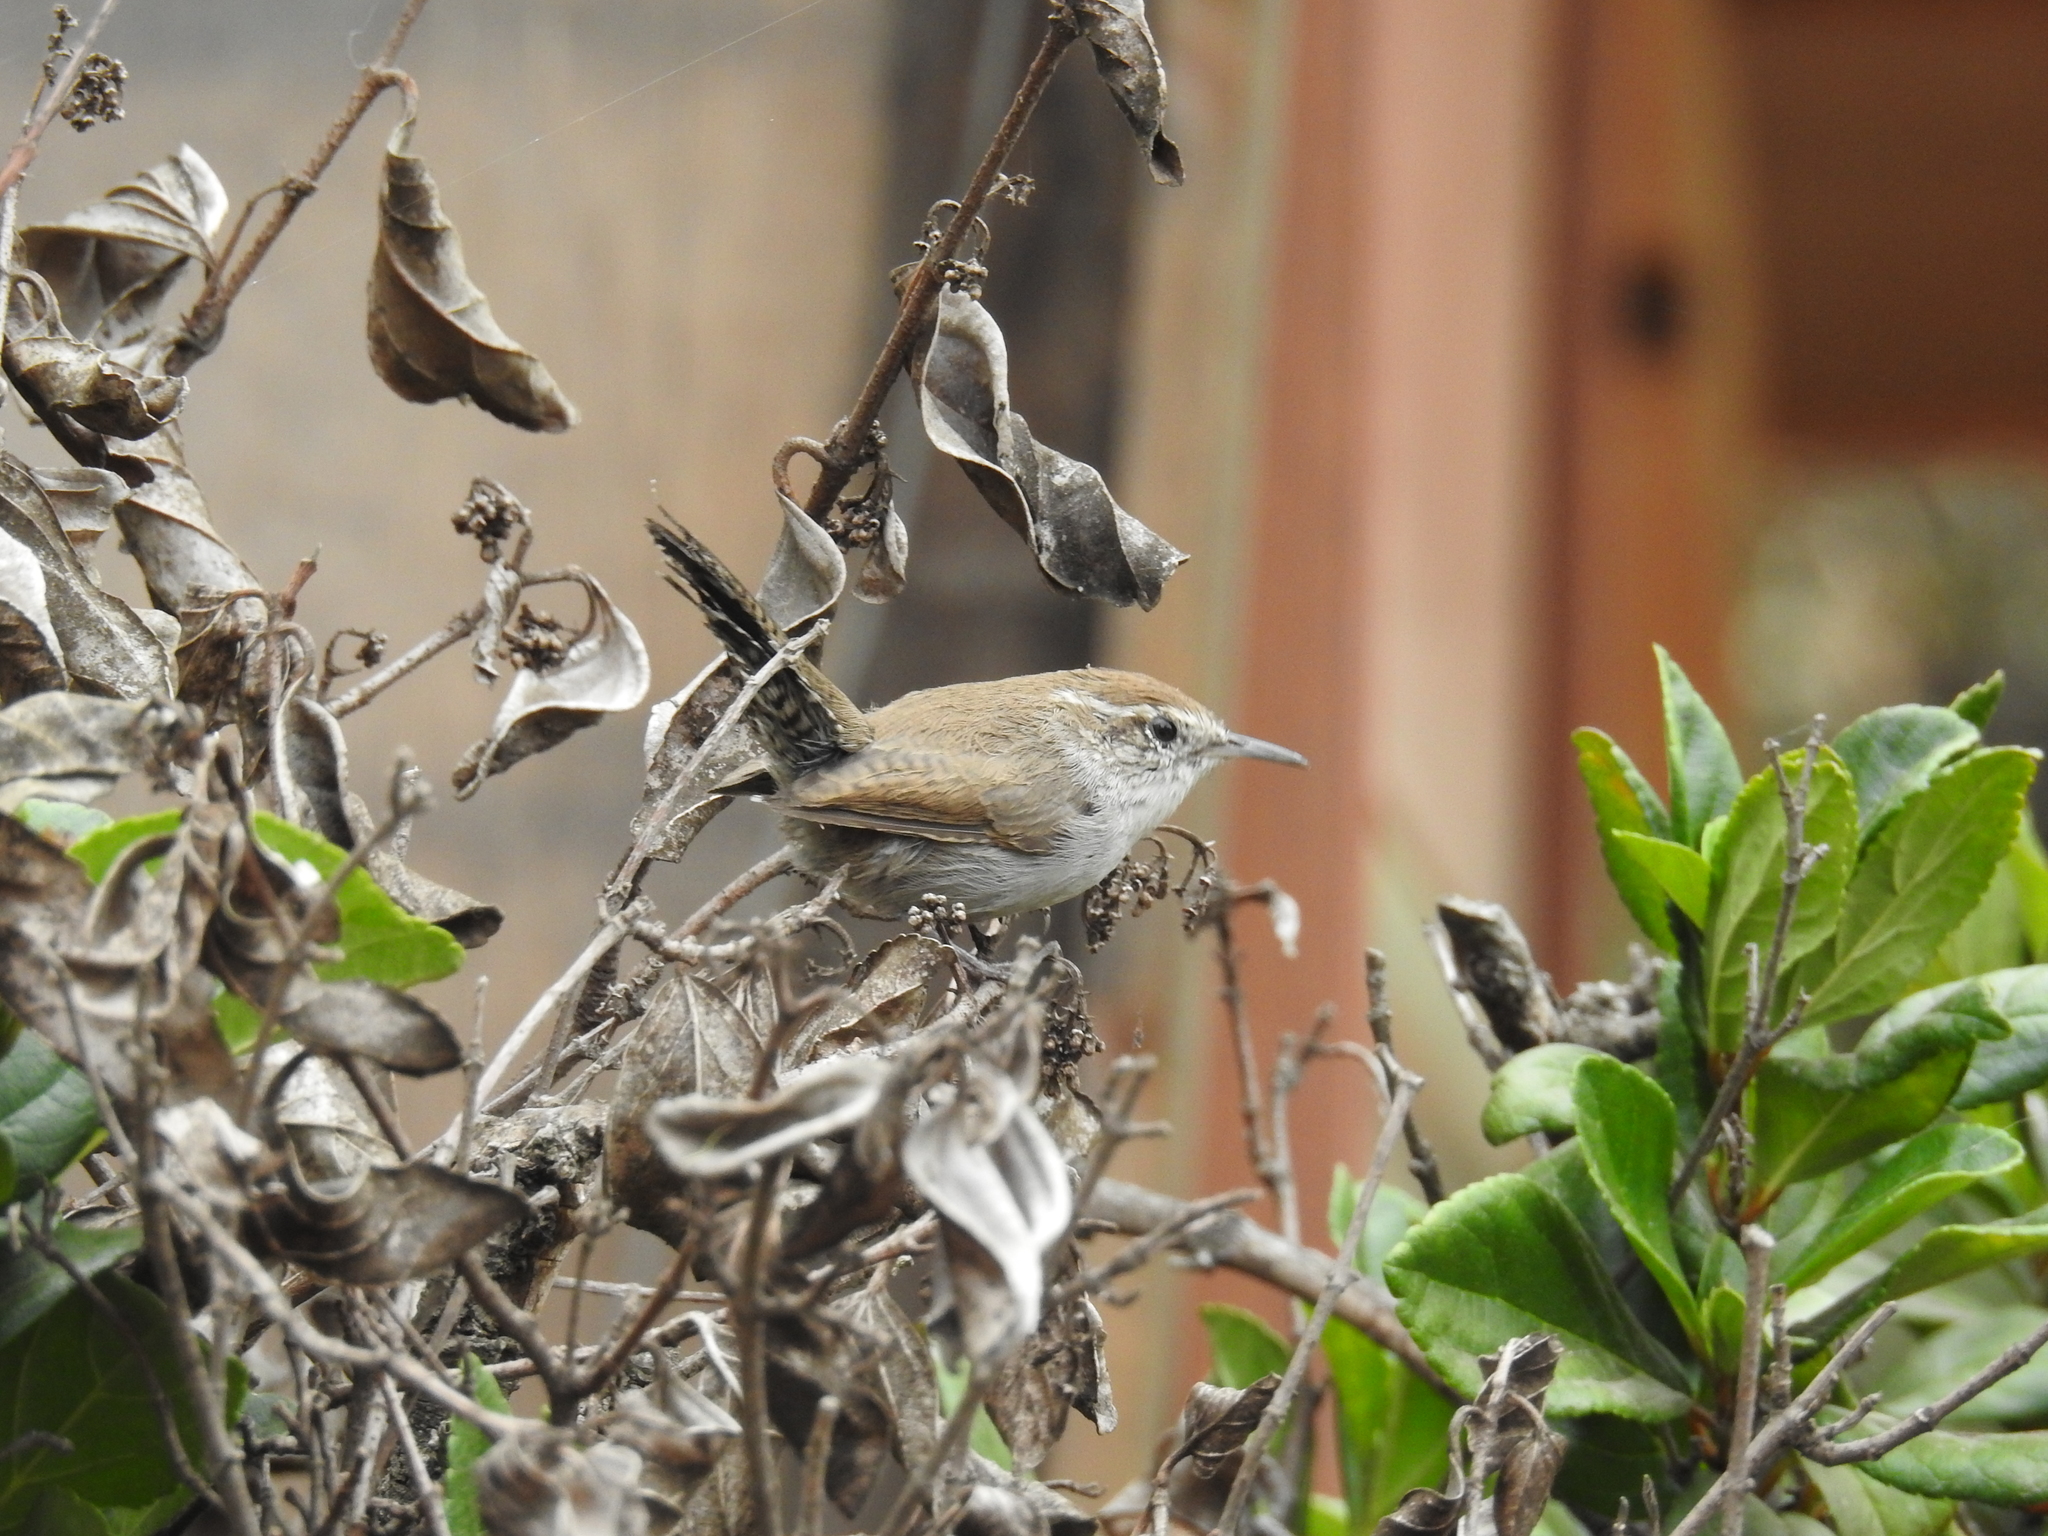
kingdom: Animalia
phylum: Chordata
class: Aves
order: Passeriformes
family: Troglodytidae
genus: Thryomanes
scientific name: Thryomanes bewickii
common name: Bewick's wren
